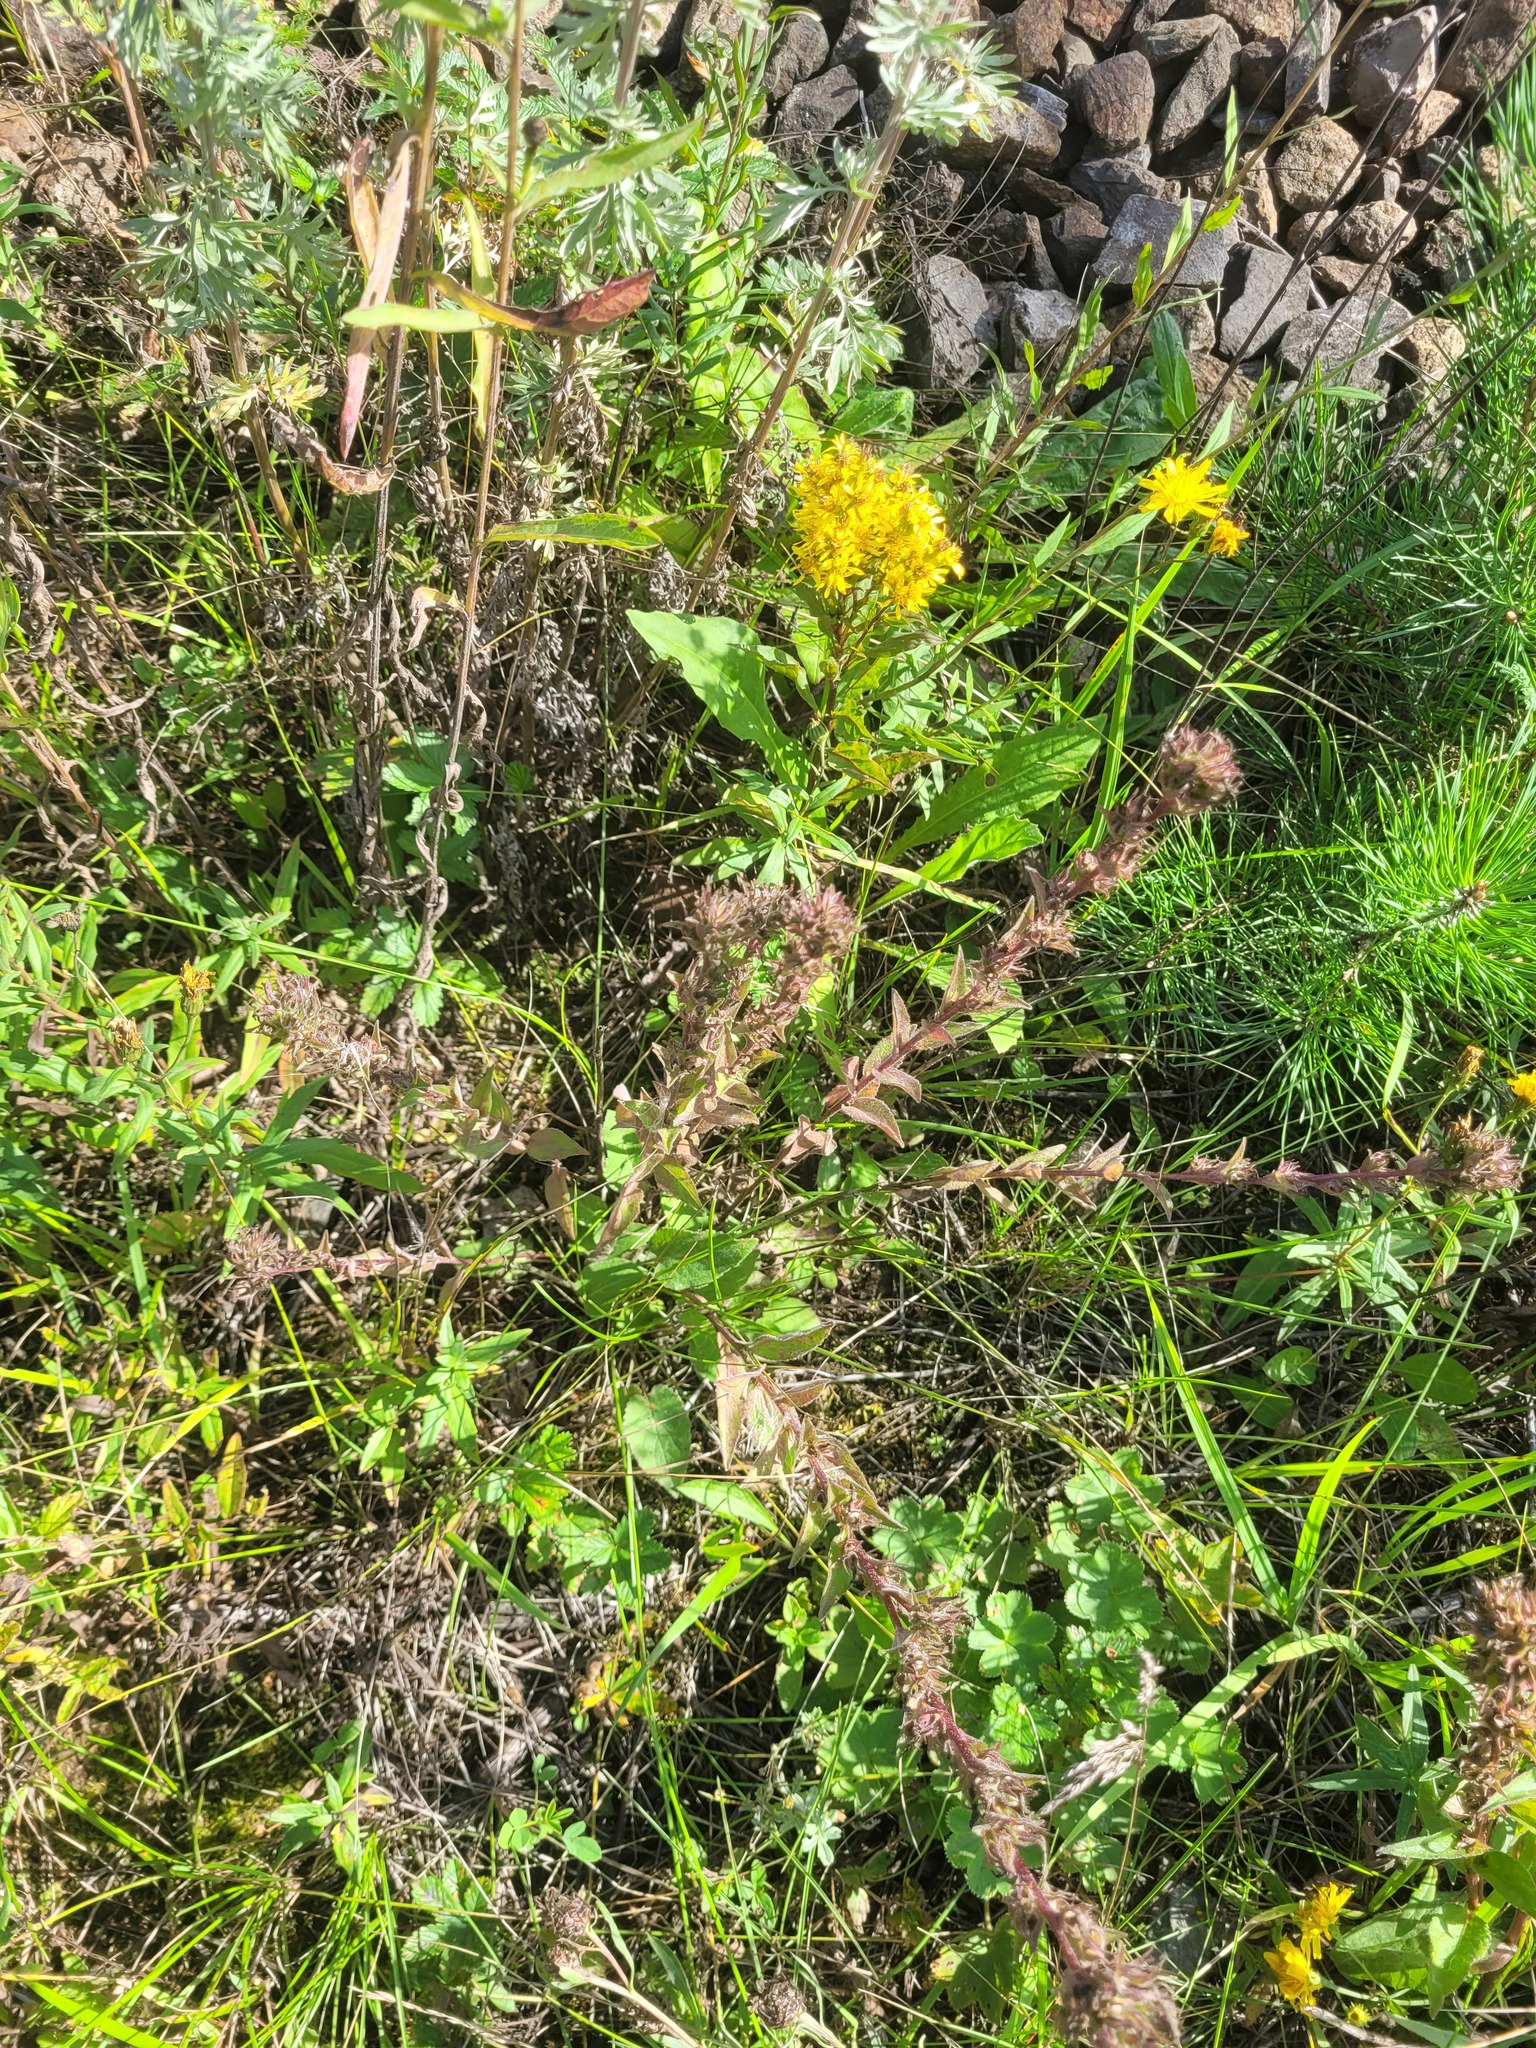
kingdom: Plantae
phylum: Tracheophyta
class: Magnoliopsida
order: Asterales
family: Campanulaceae
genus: Campanula
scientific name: Campanula glomerata
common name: Clustered bellflower
